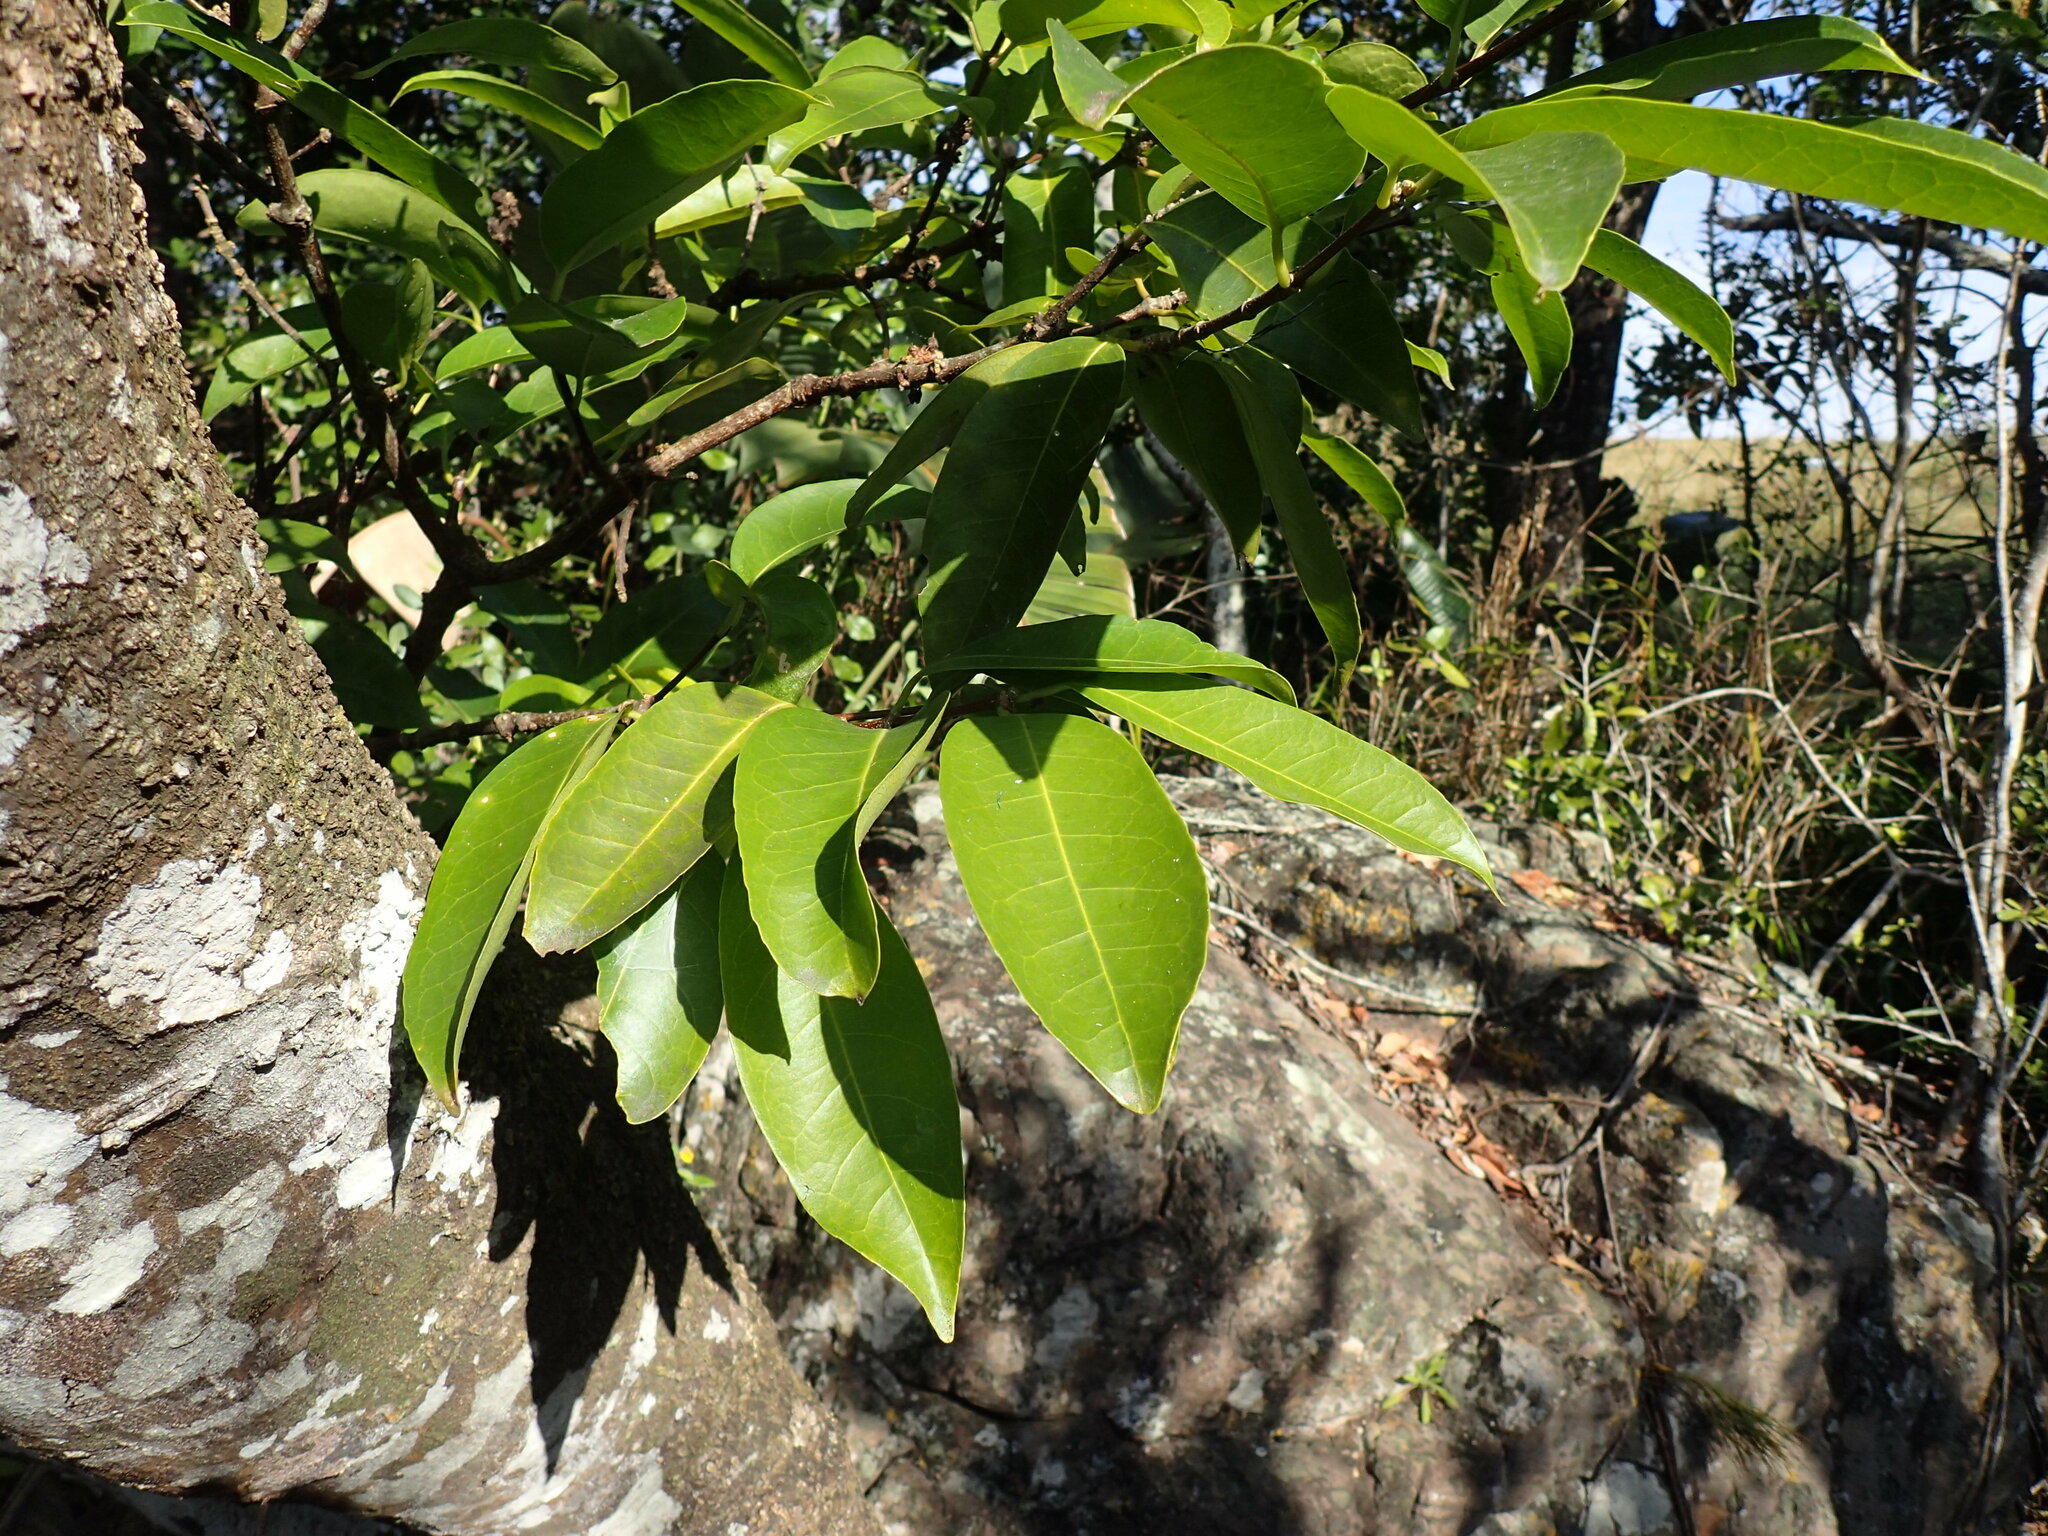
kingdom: Plantae
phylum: Tracheophyta
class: Magnoliopsida
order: Malpighiales
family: Rhizophoraceae
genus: Cassipourea
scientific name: Cassipourea gummiflua
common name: Large-leaved onionwood
